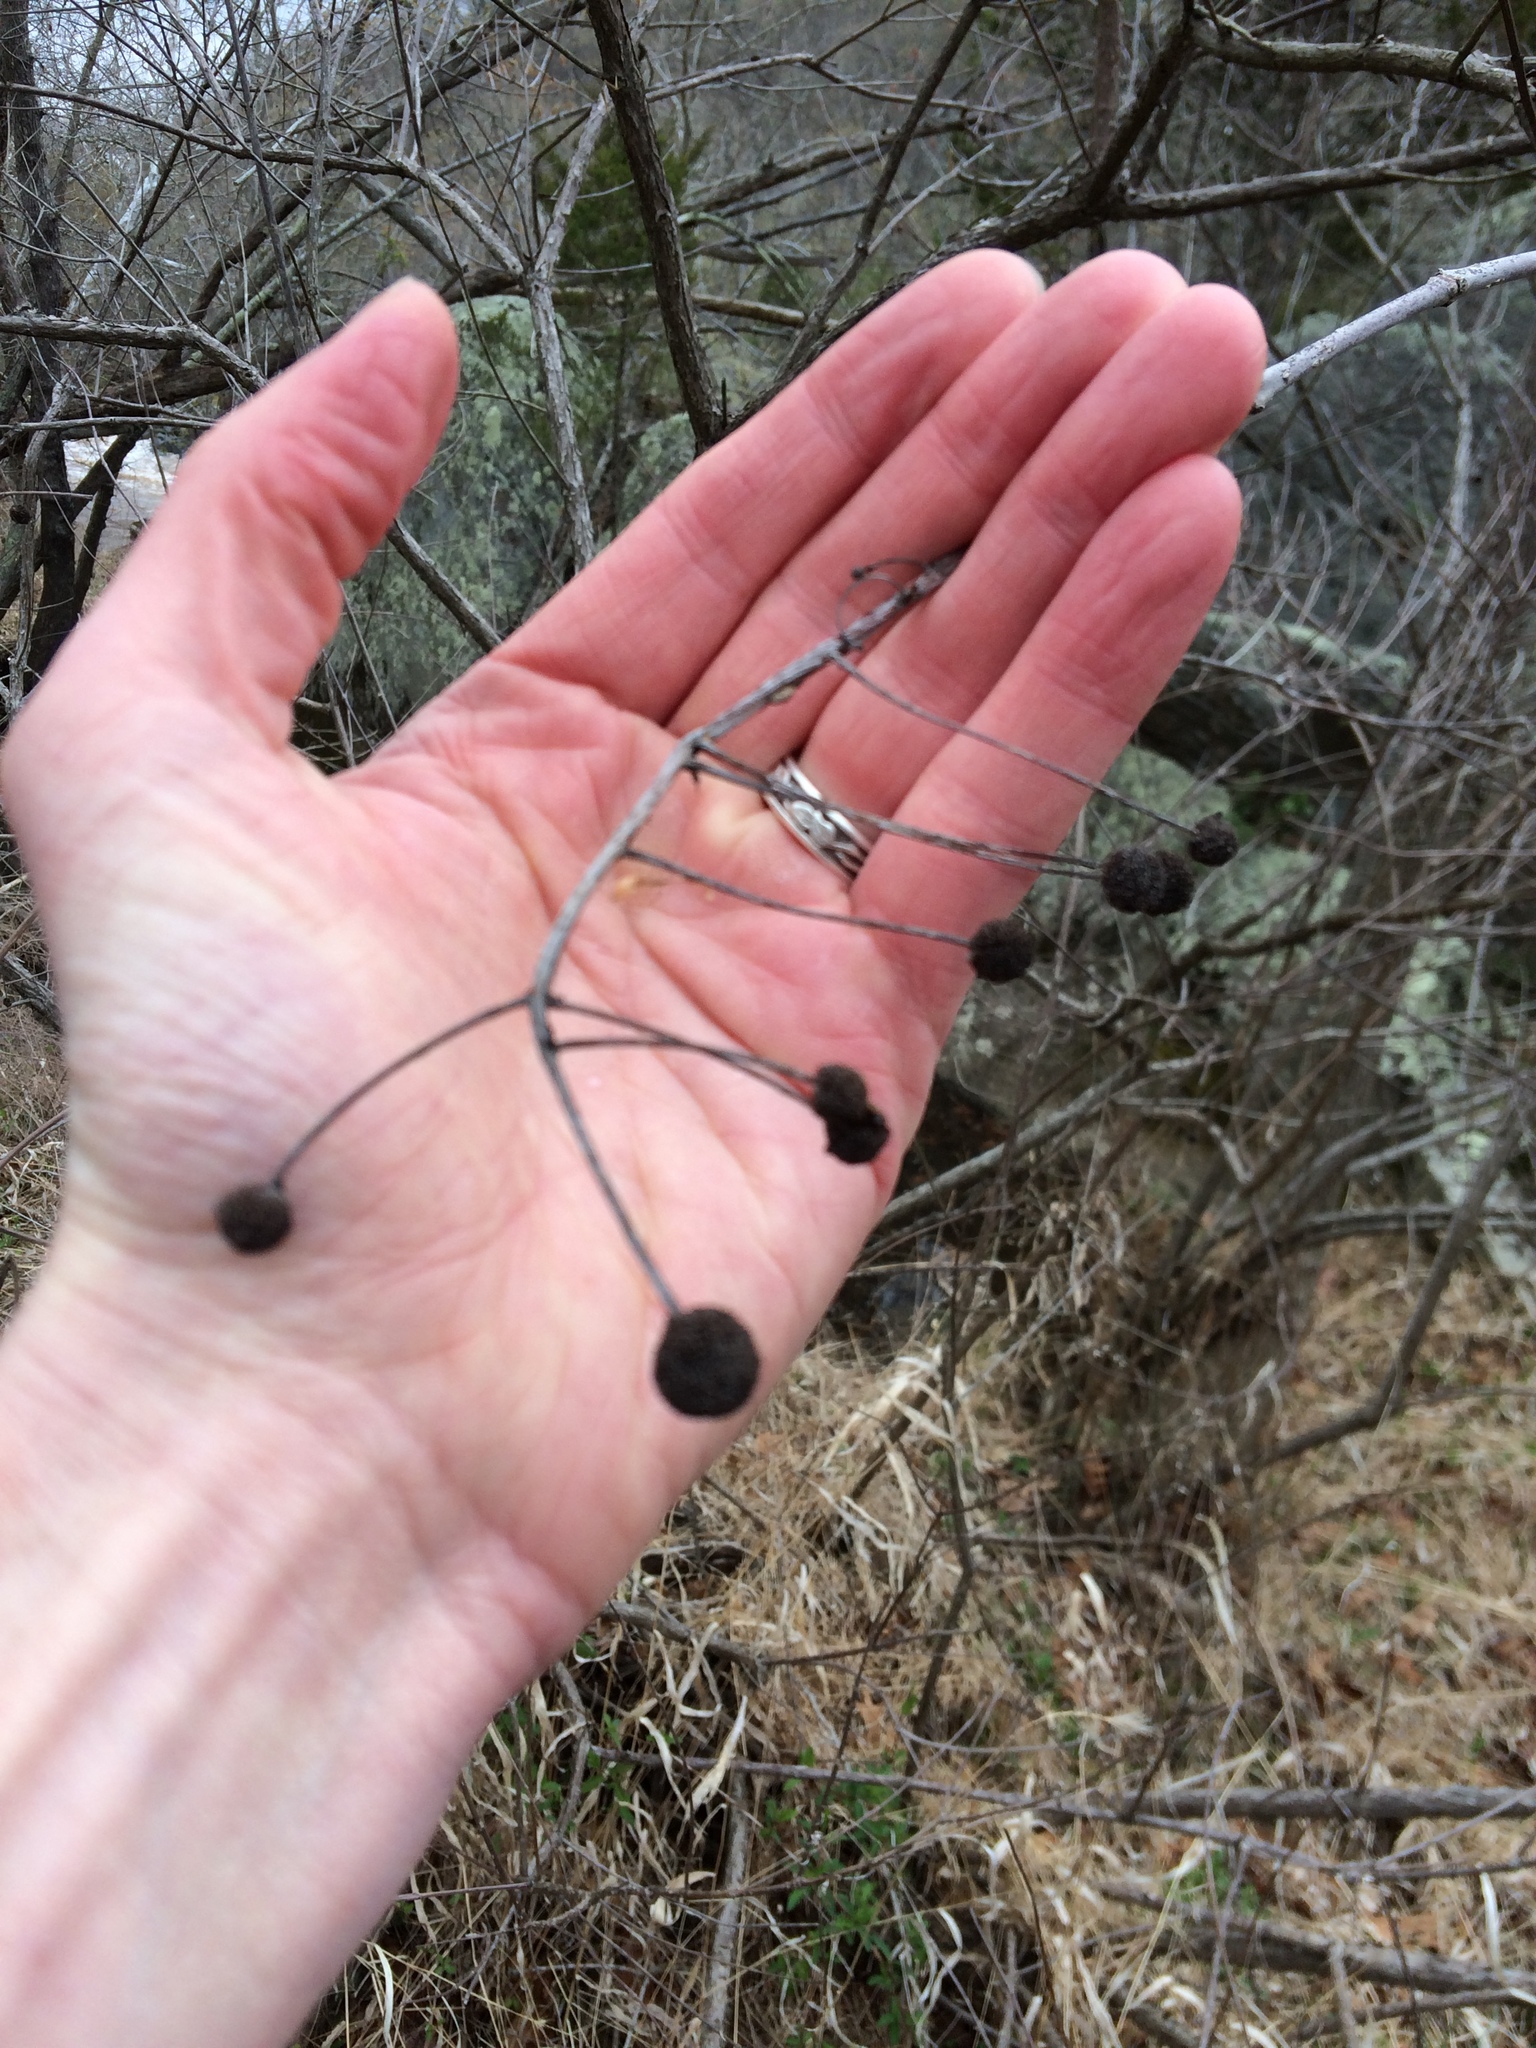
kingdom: Plantae
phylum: Tracheophyta
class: Magnoliopsida
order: Gentianales
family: Rubiaceae
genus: Cephalanthus
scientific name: Cephalanthus occidentalis
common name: Button-willow
